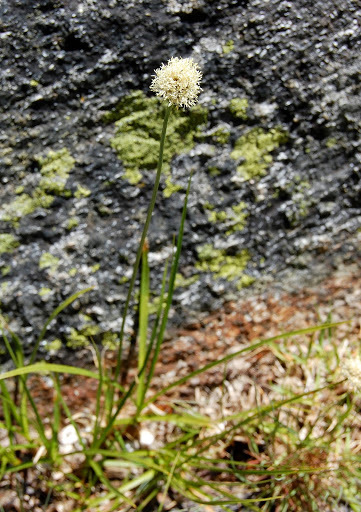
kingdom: Plantae
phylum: Tracheophyta
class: Liliopsida
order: Poales
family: Cyperaceae
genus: Calliscirpus
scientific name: Calliscirpus criniger
